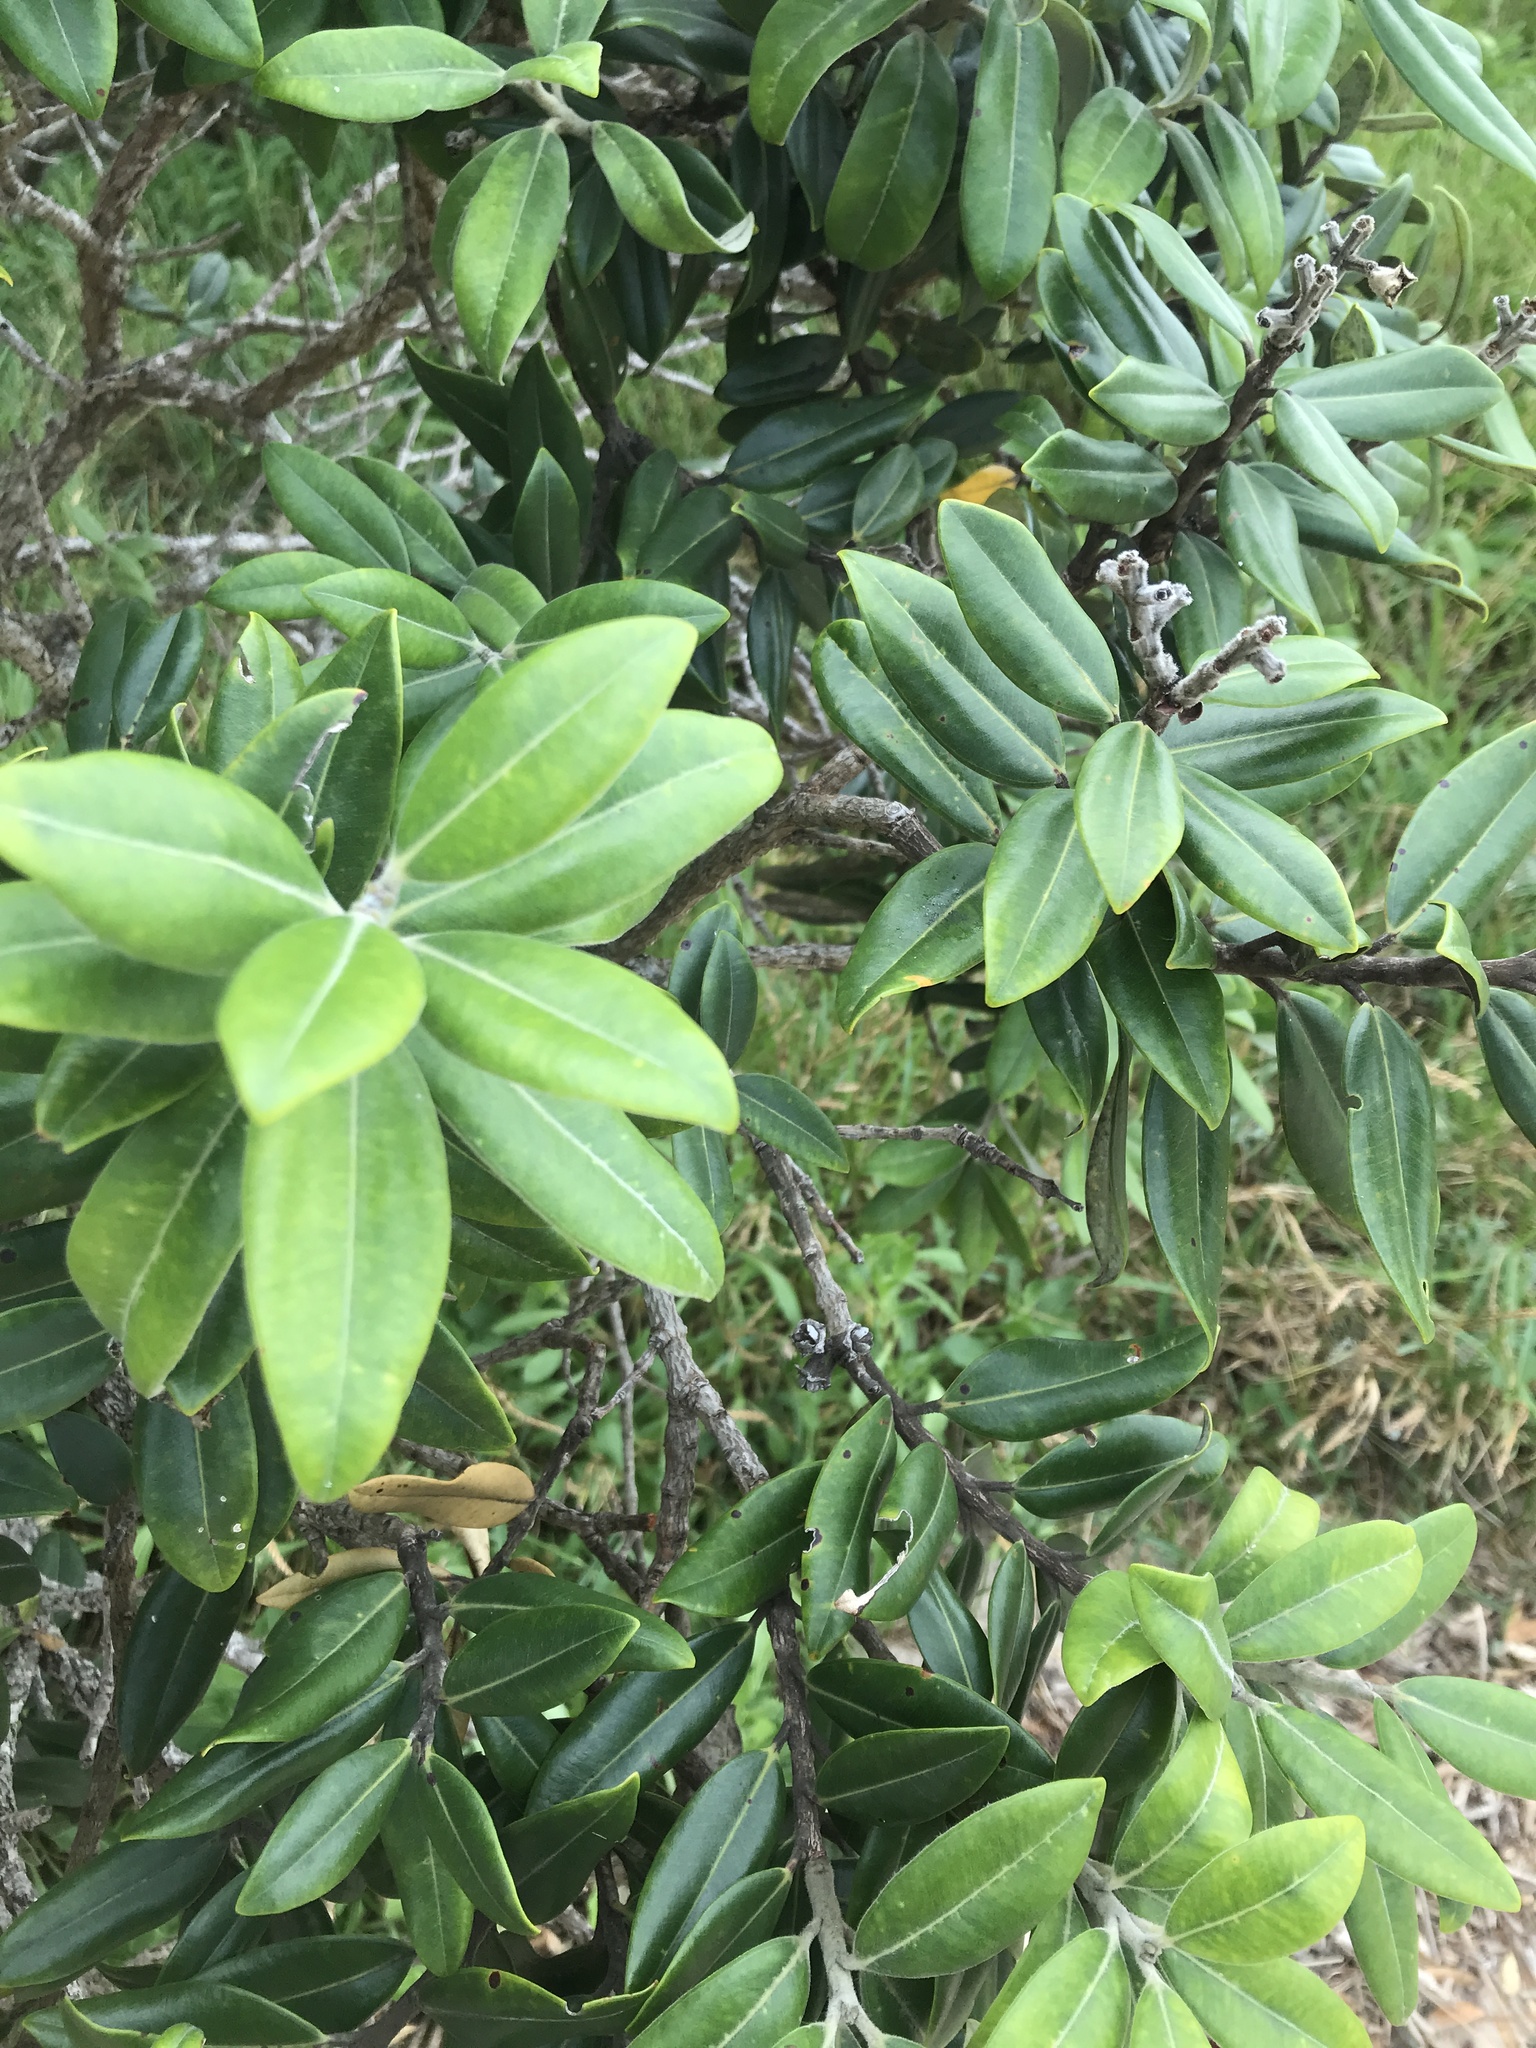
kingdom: Plantae
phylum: Tracheophyta
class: Magnoliopsida
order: Myrtales
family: Myrtaceae
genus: Metrosideros
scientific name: Metrosideros excelsa
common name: New zealand christmastree
